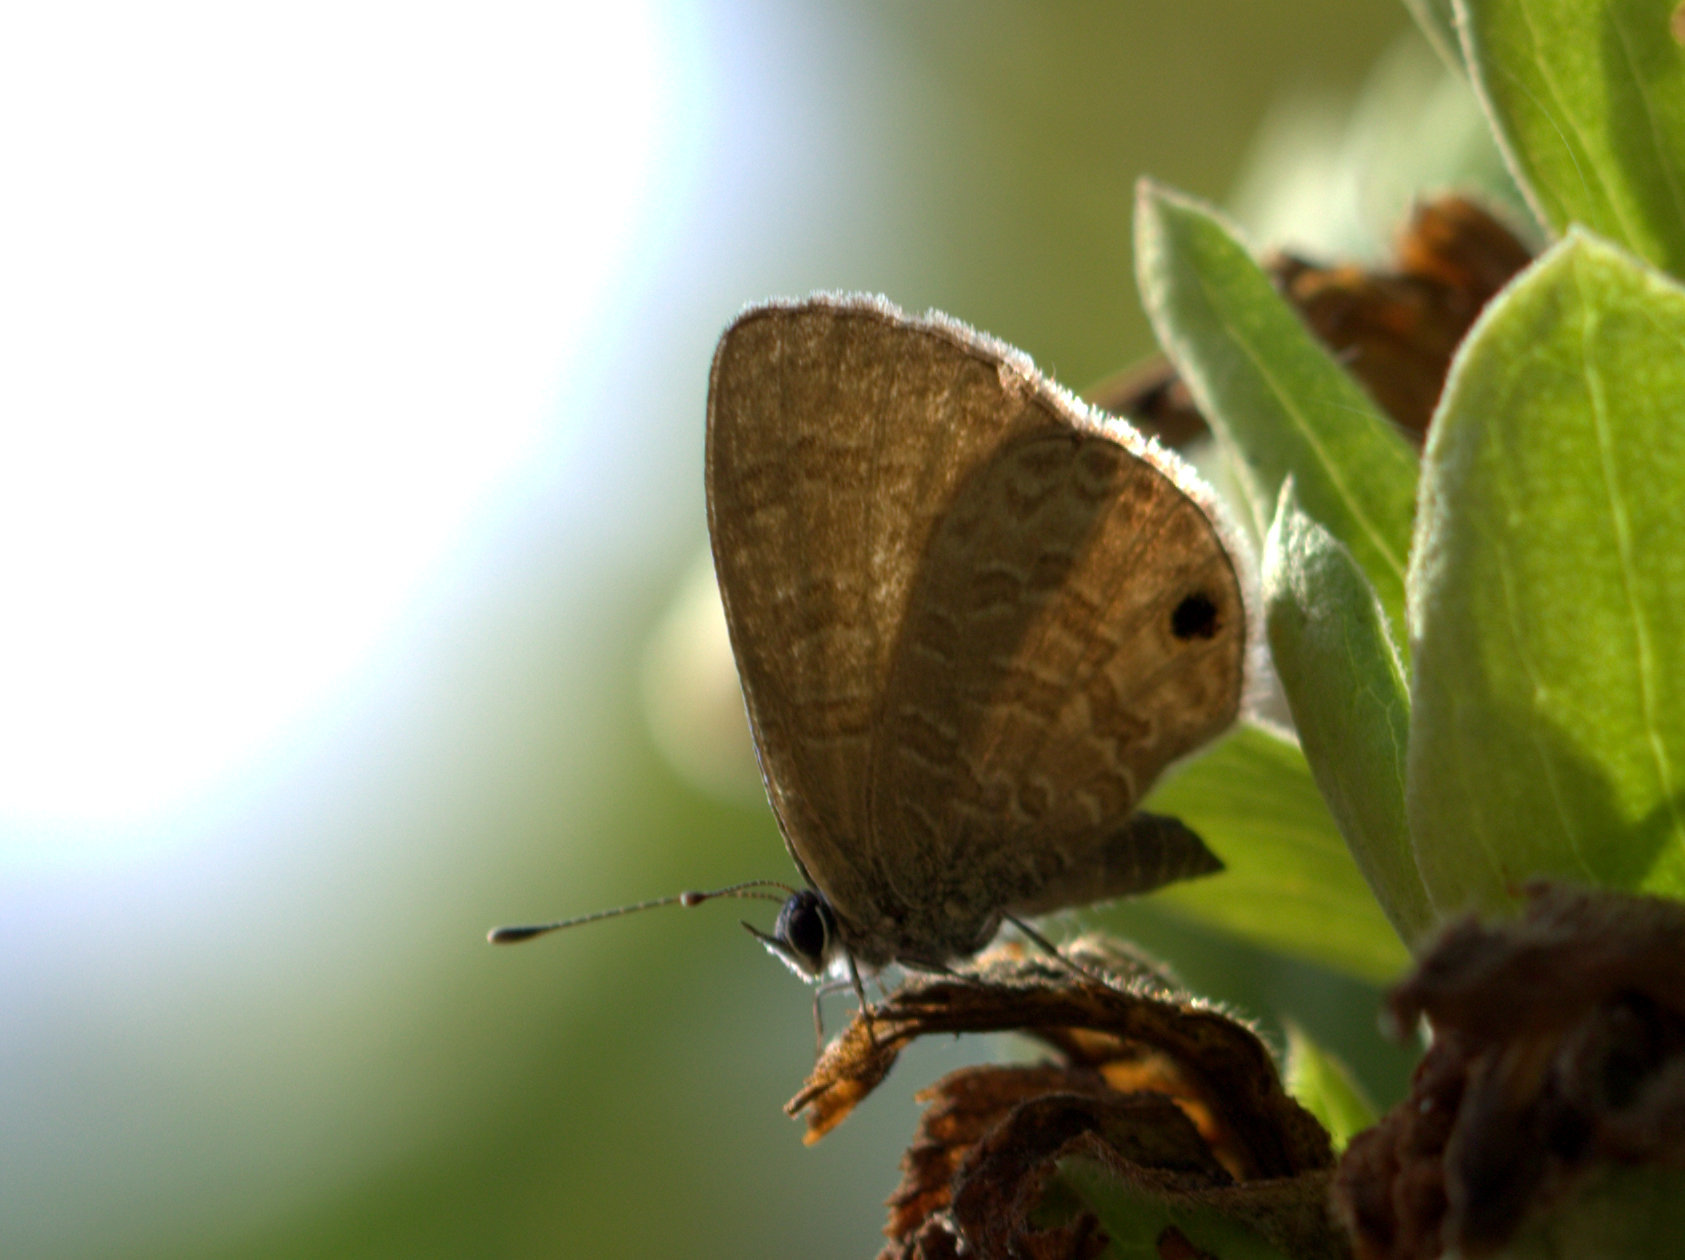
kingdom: Animalia
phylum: Arthropoda
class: Insecta
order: Lepidoptera
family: Lycaenidae
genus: Prosotas
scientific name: Prosotas dubiosa
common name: Tailless lineblue
